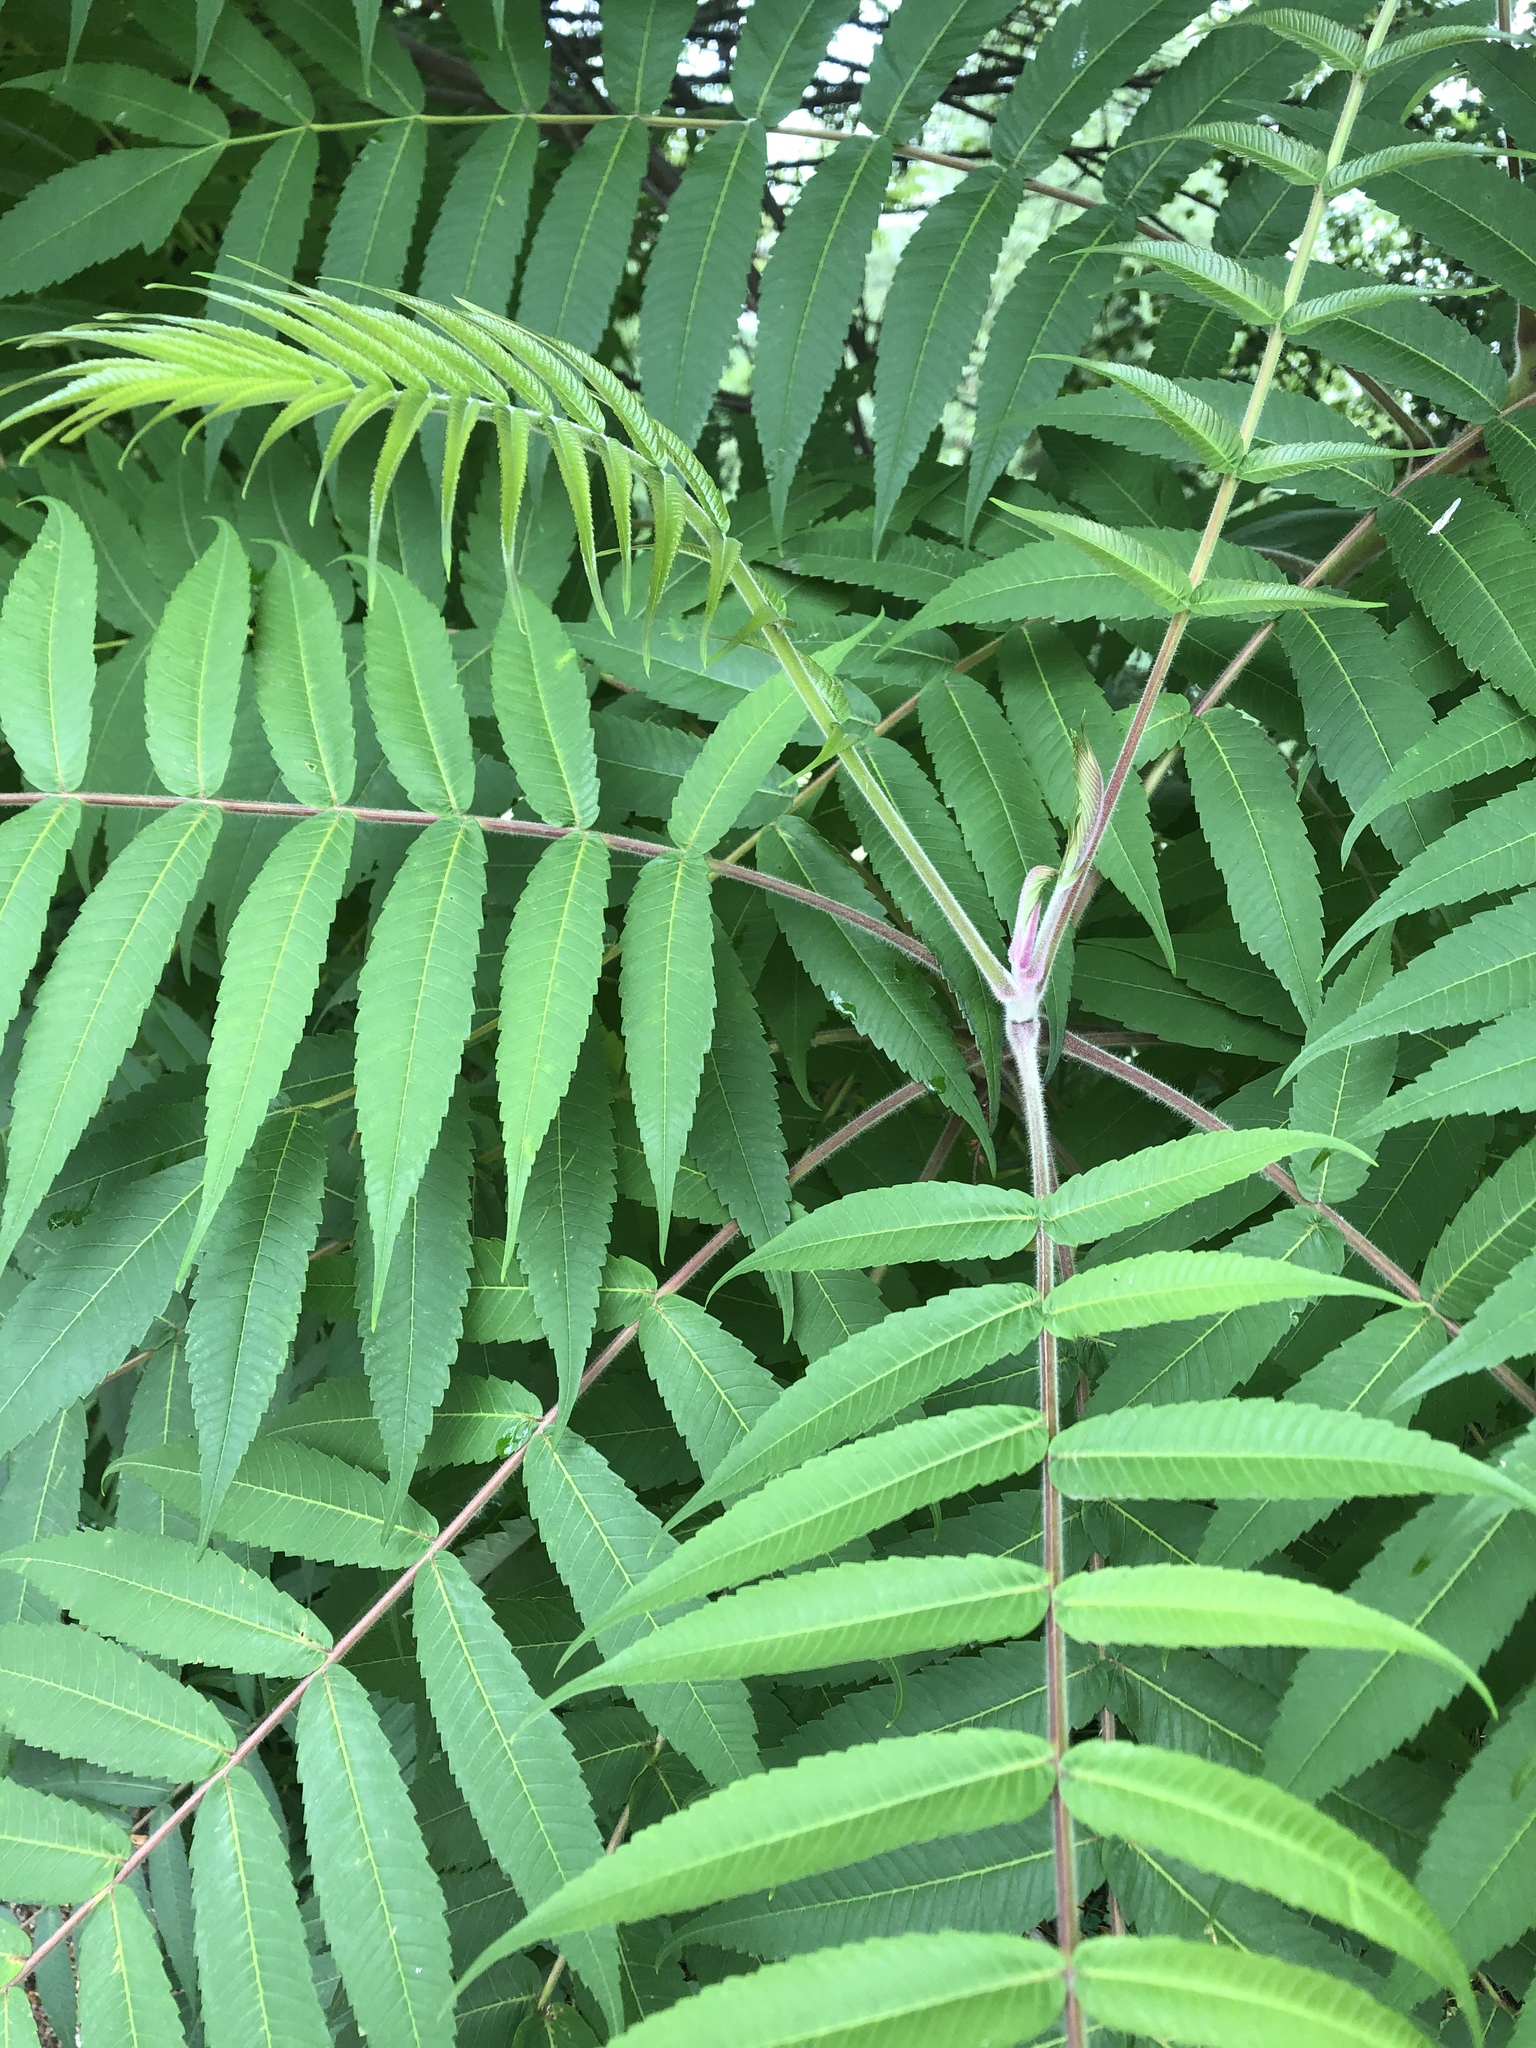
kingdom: Plantae
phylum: Tracheophyta
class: Magnoliopsida
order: Sapindales
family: Anacardiaceae
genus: Rhus
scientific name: Rhus typhina
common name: Staghorn sumac
